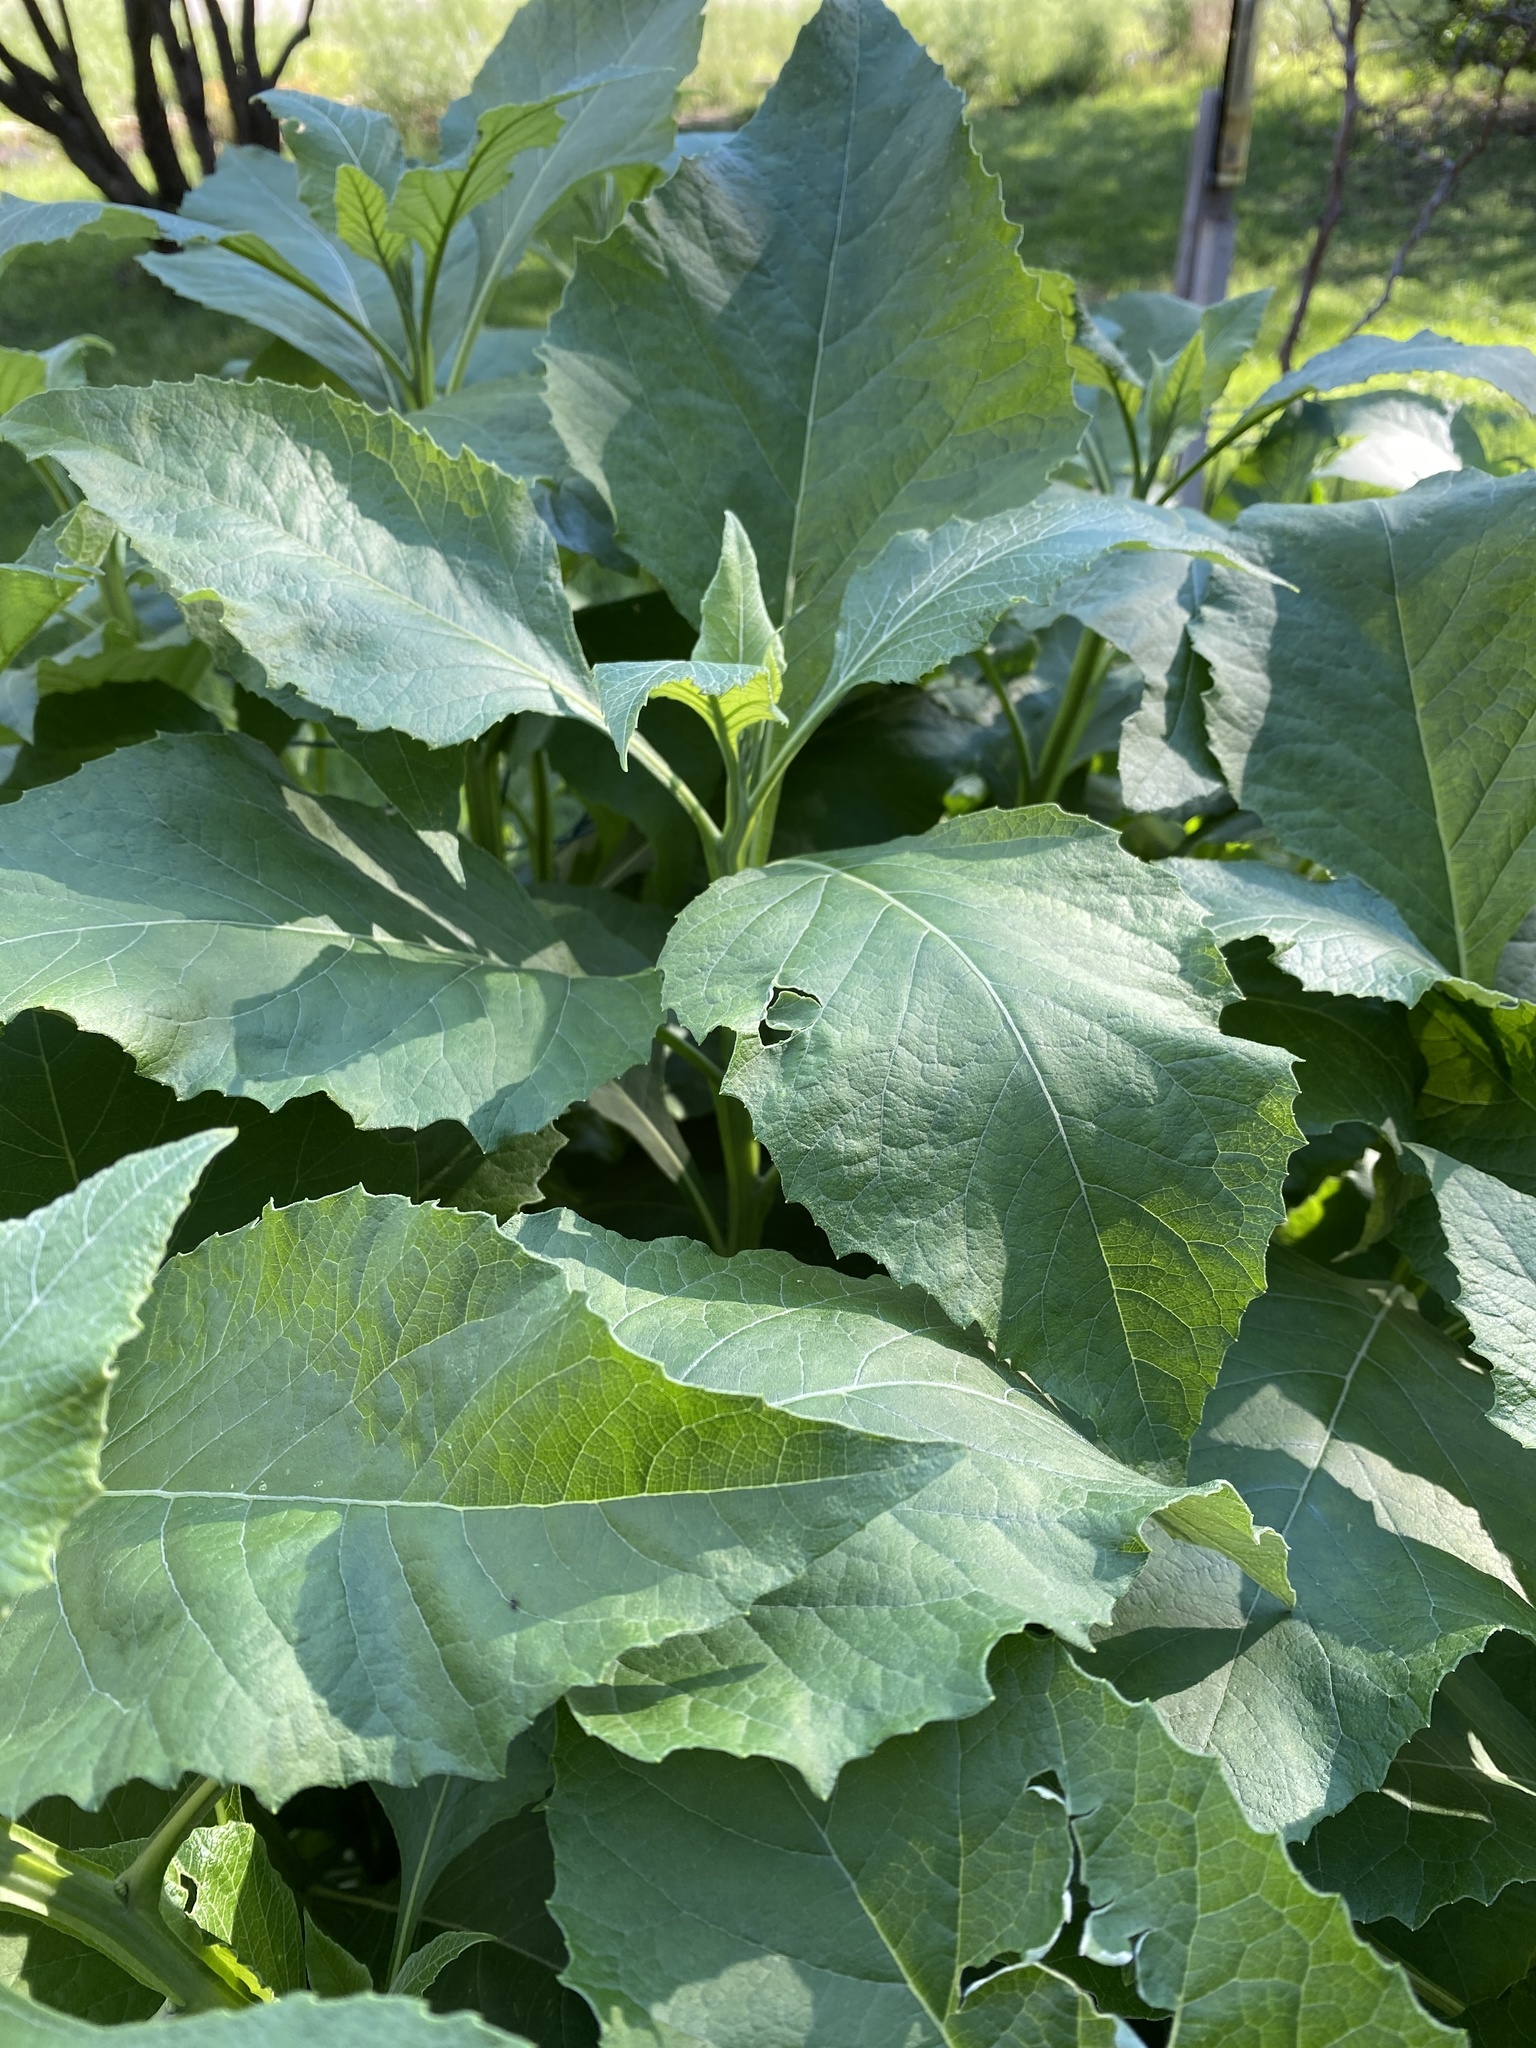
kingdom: Plantae
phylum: Tracheophyta
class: Magnoliopsida
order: Asterales
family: Asteraceae
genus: Verbesina
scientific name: Verbesina virginica
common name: Frostweed
